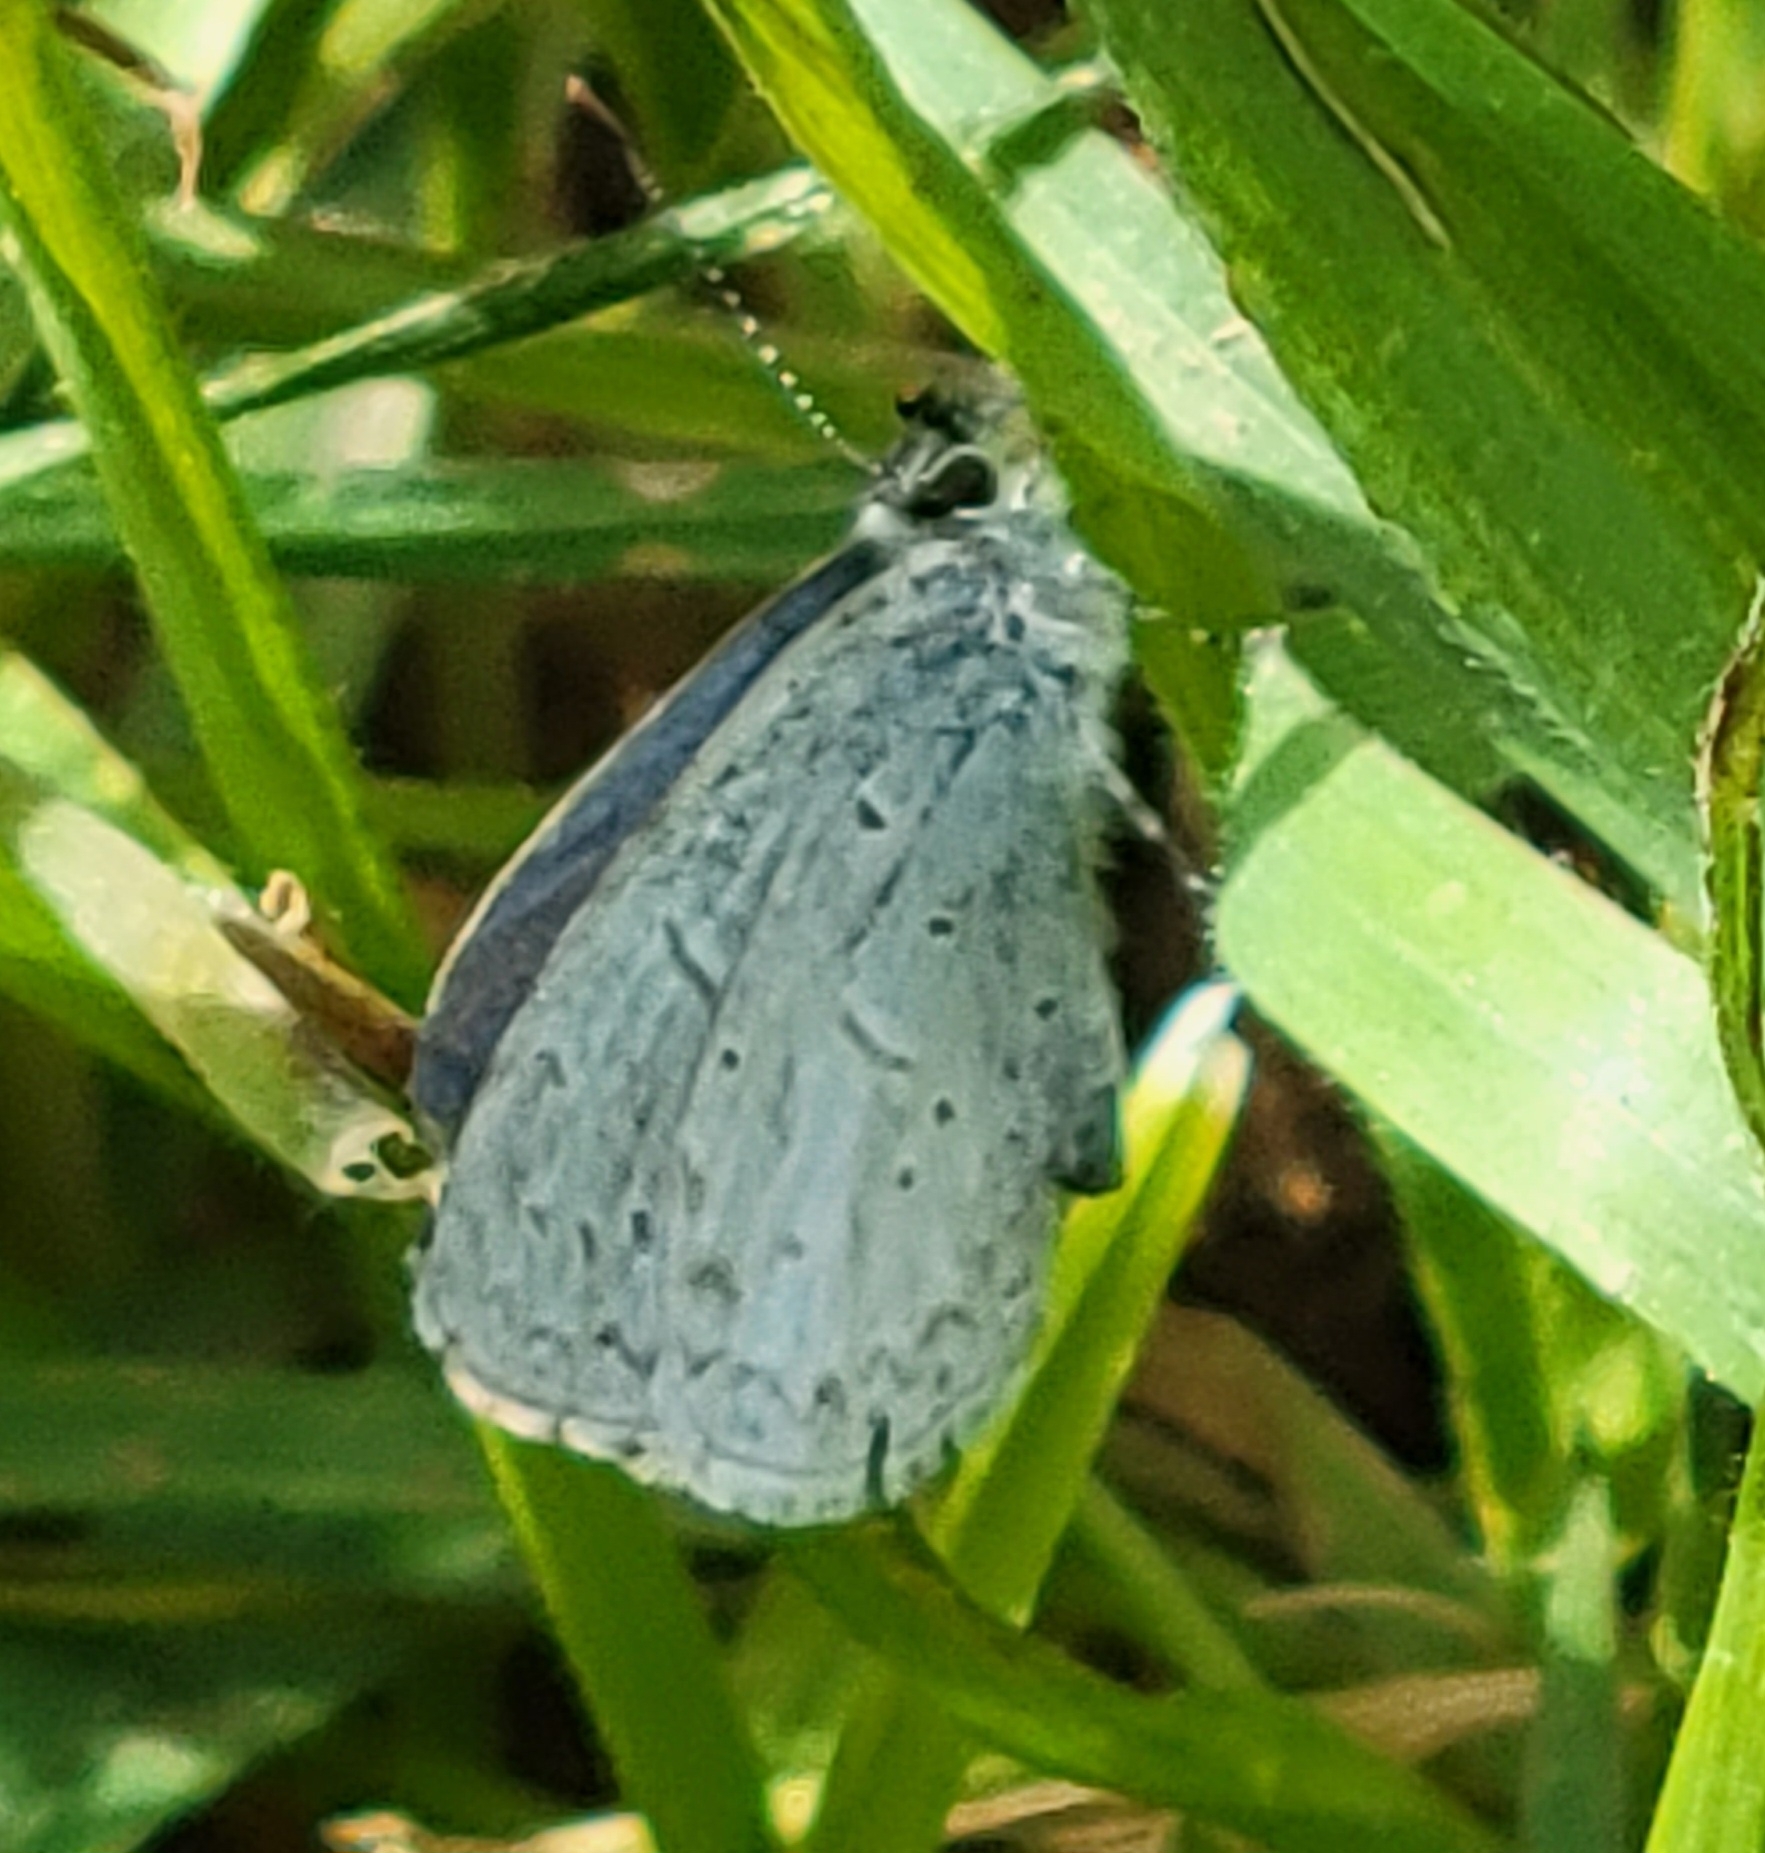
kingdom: Animalia
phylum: Arthropoda
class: Insecta
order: Lepidoptera
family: Lycaenidae
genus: Celastrina
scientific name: Celastrina ladon
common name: Spring azure
